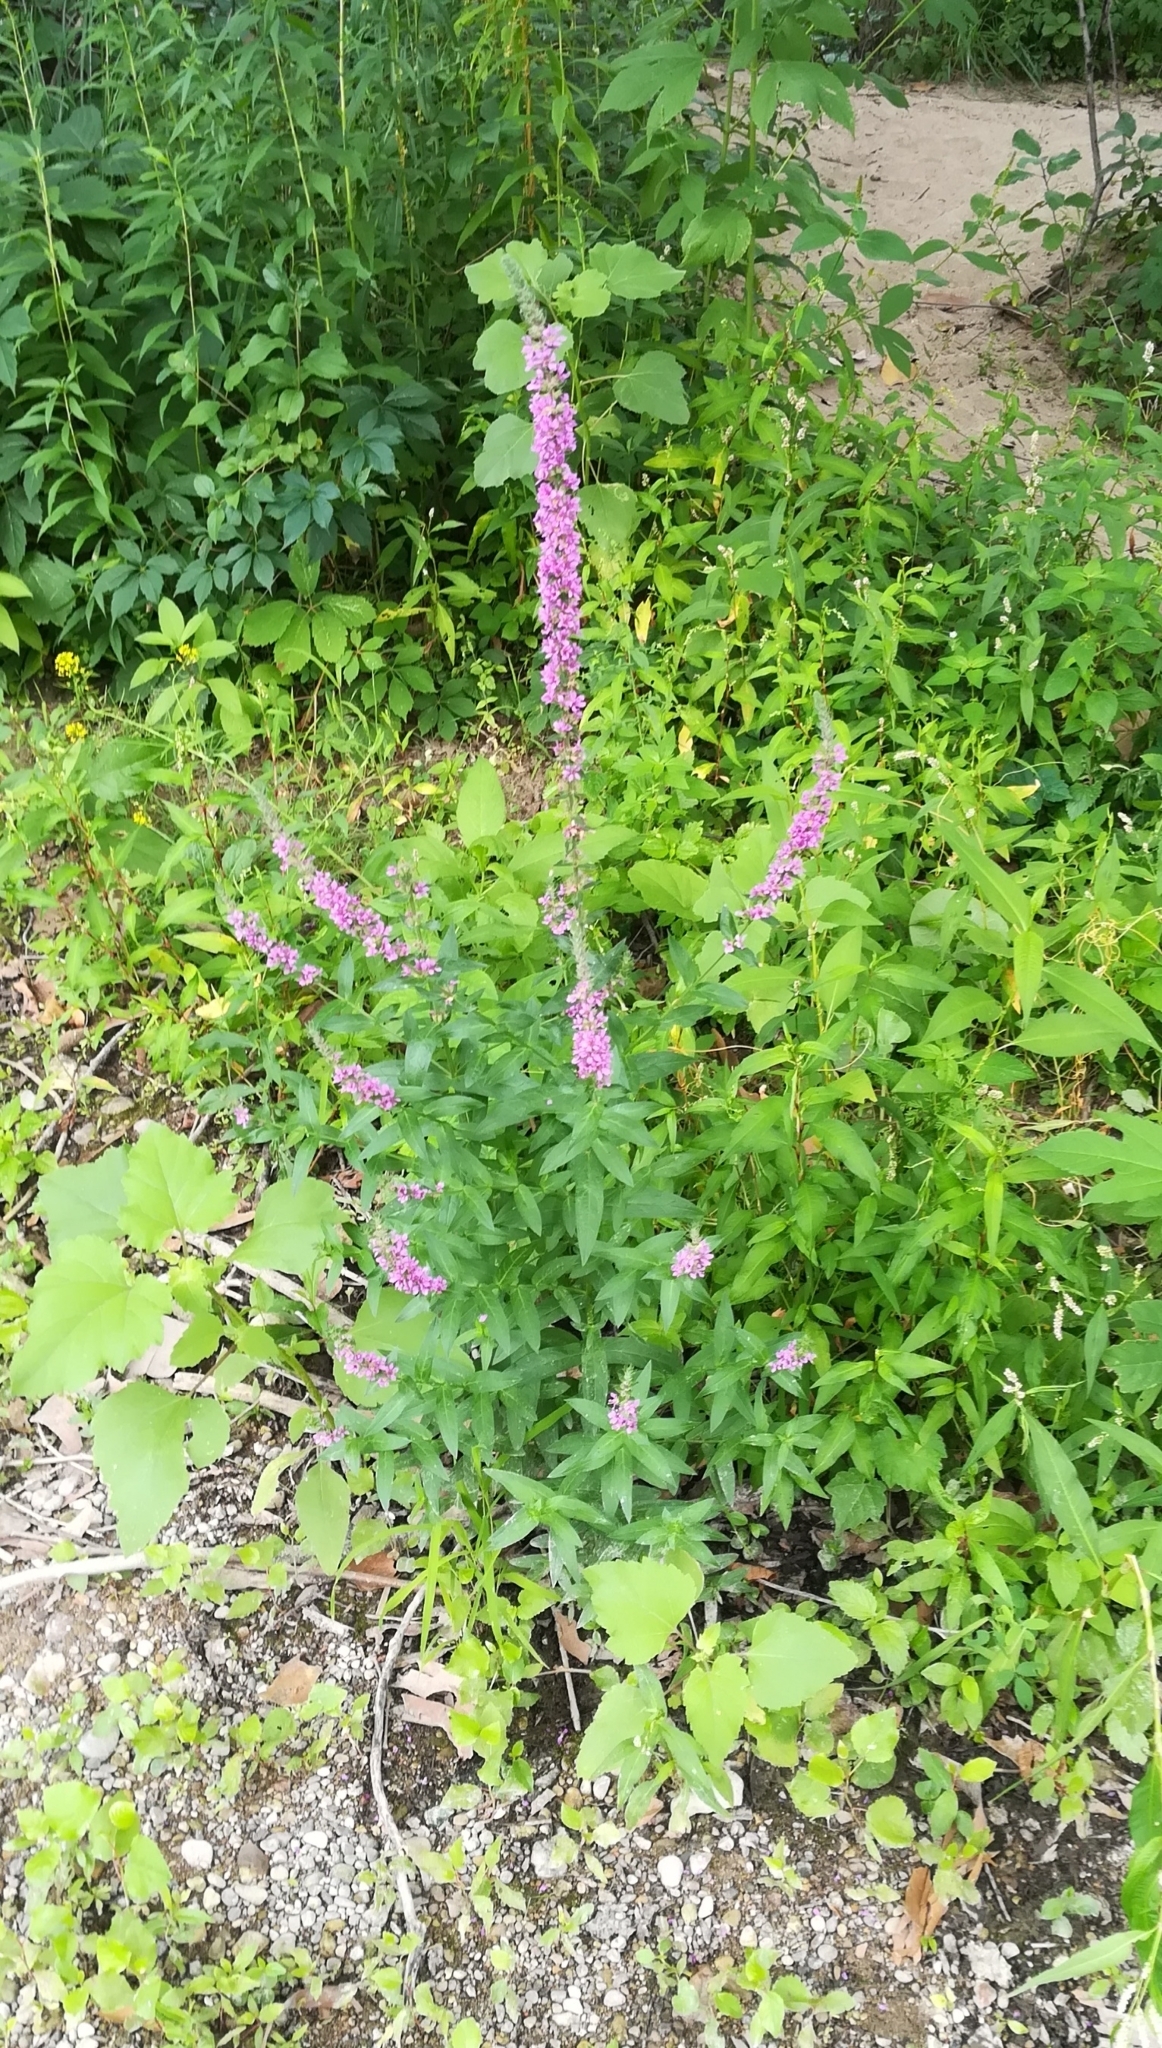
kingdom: Plantae
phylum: Tracheophyta
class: Magnoliopsida
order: Myrtales
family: Lythraceae
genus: Lythrum
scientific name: Lythrum salicaria
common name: Purple loosestrife
